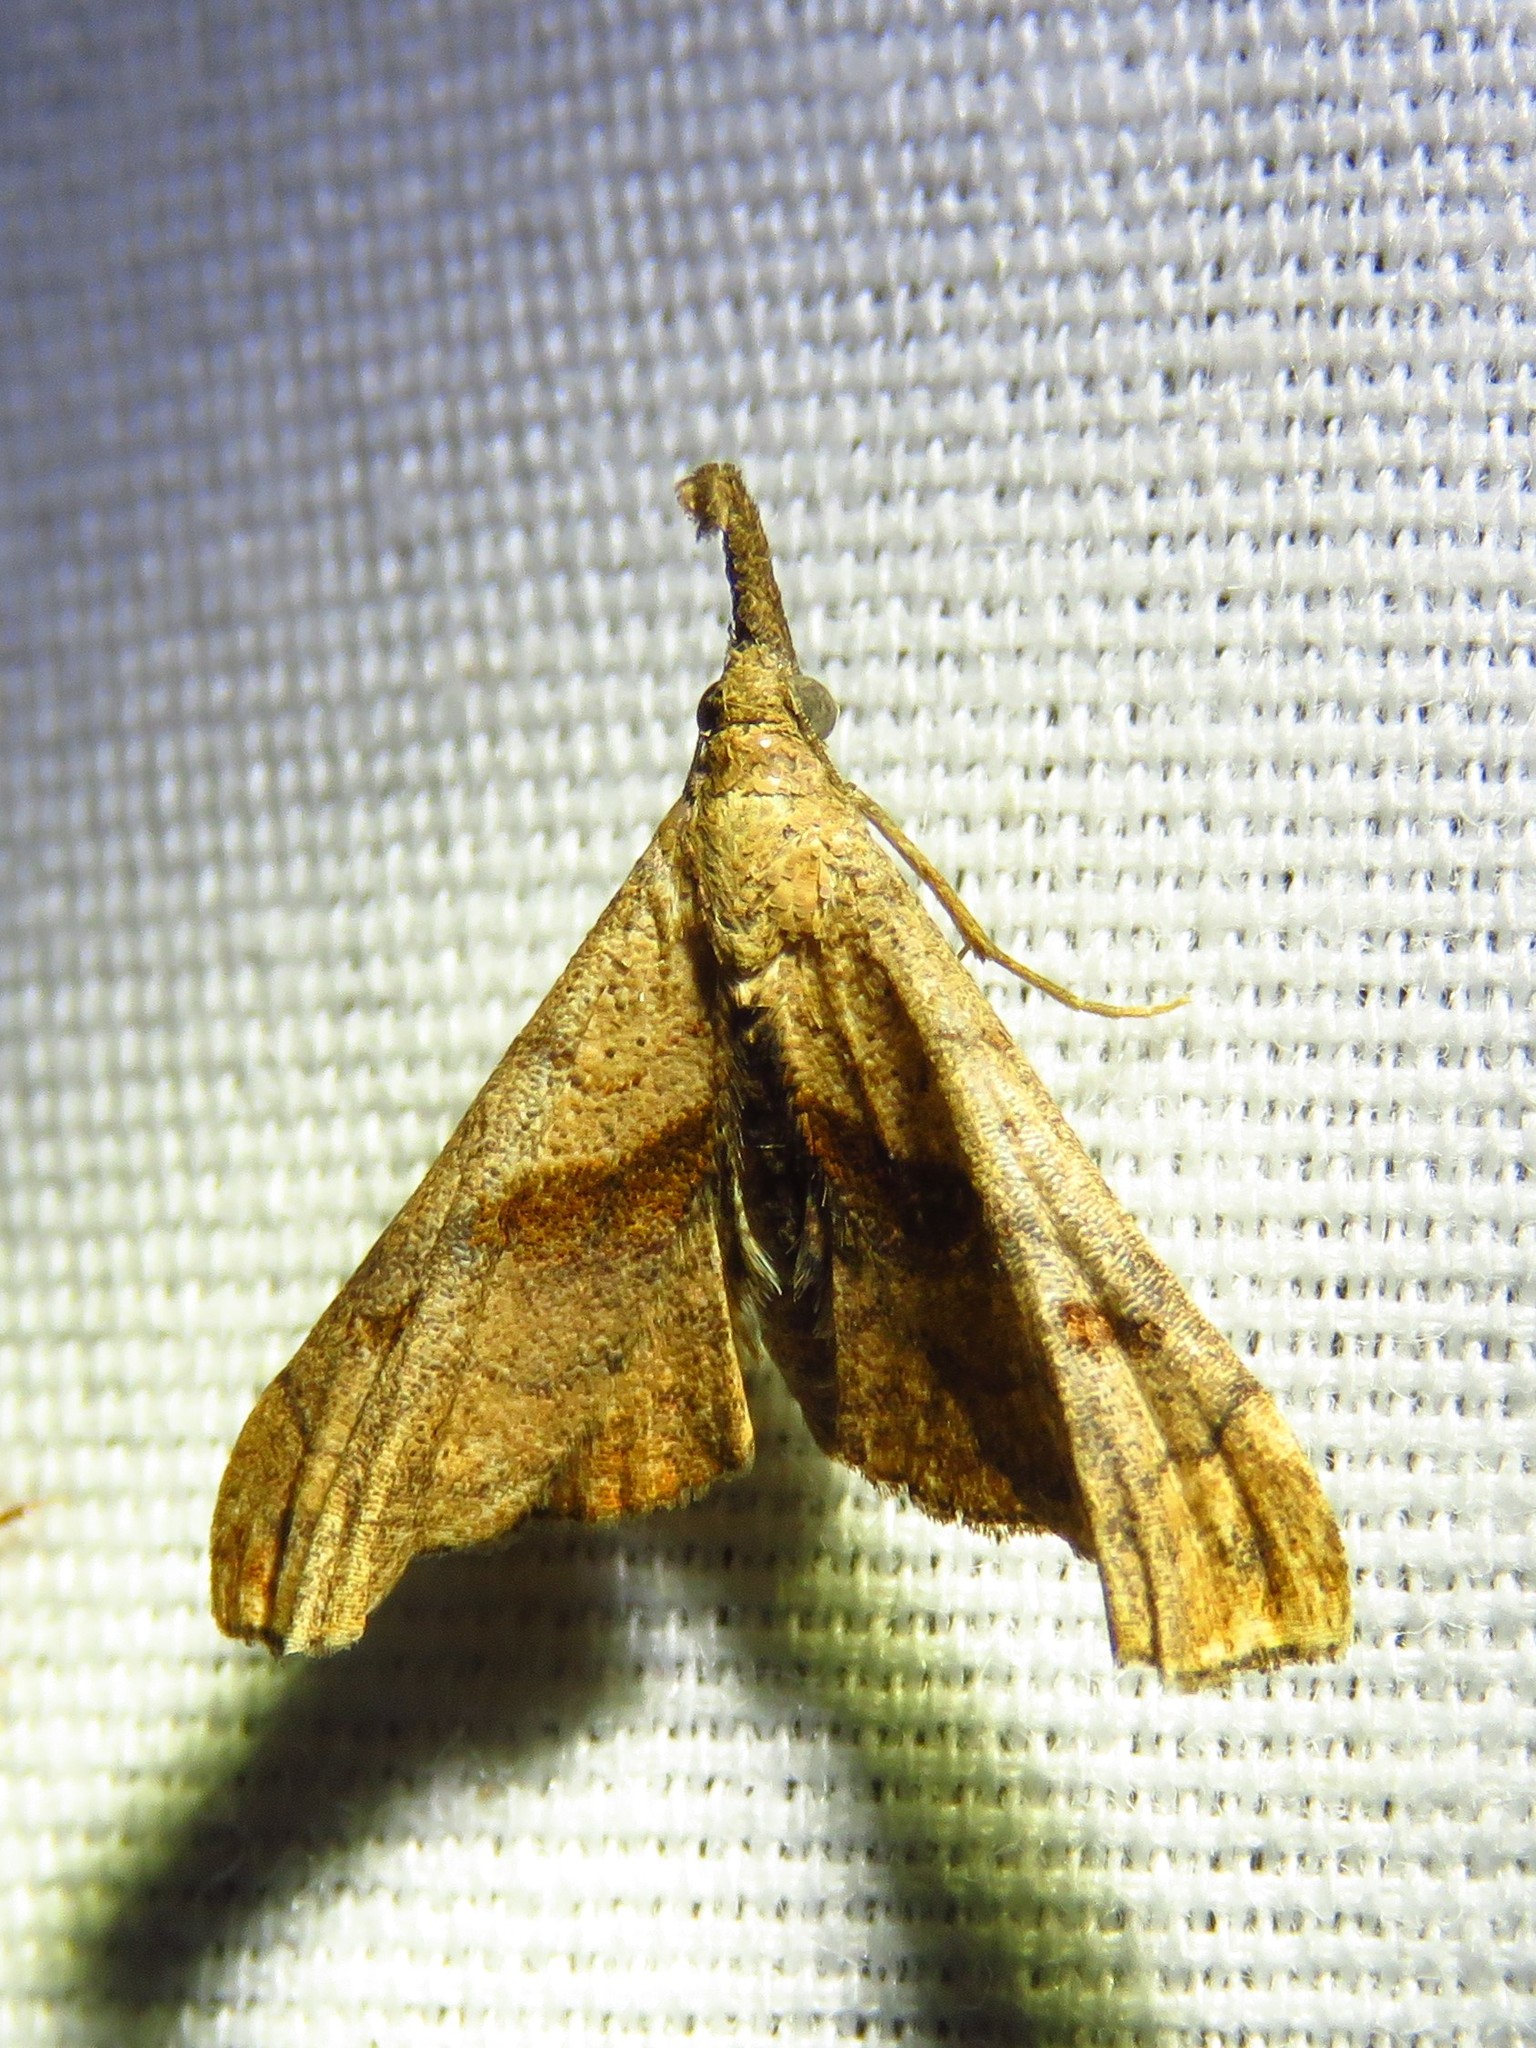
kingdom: Animalia
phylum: Arthropoda
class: Insecta
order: Lepidoptera
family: Erebidae
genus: Palthis
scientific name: Palthis angulalis
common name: Dark-spotted palthis moth
